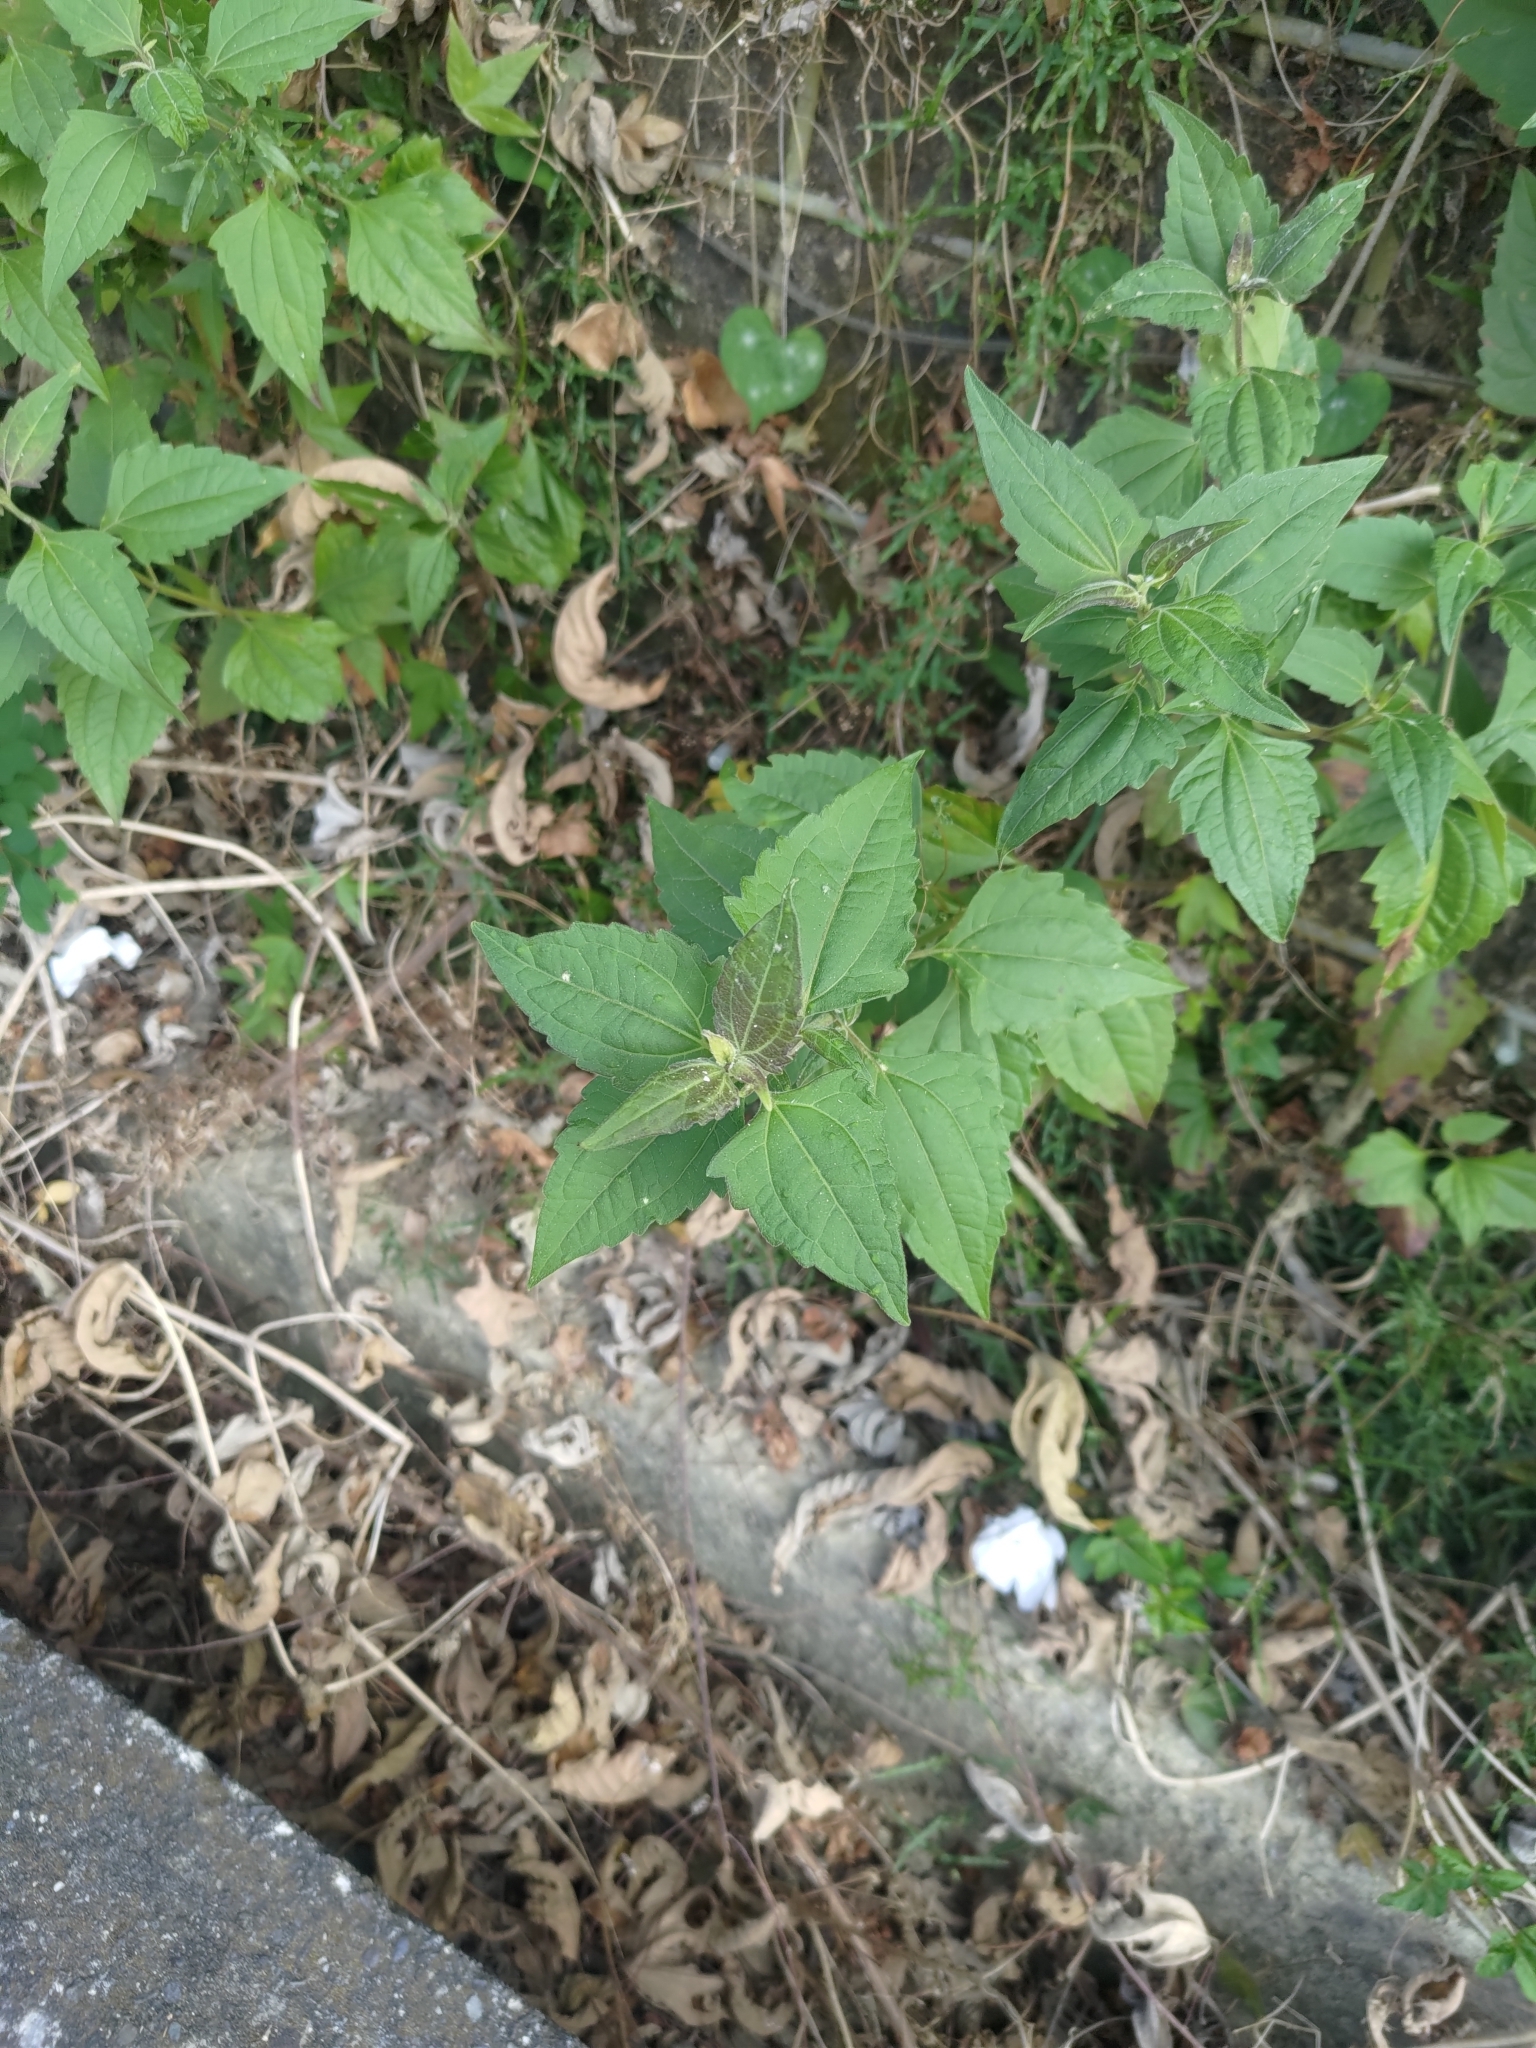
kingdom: Plantae
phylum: Tracheophyta
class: Magnoliopsida
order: Asterales
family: Asteraceae
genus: Chromolaena
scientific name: Chromolaena odorata
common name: Siamweed
